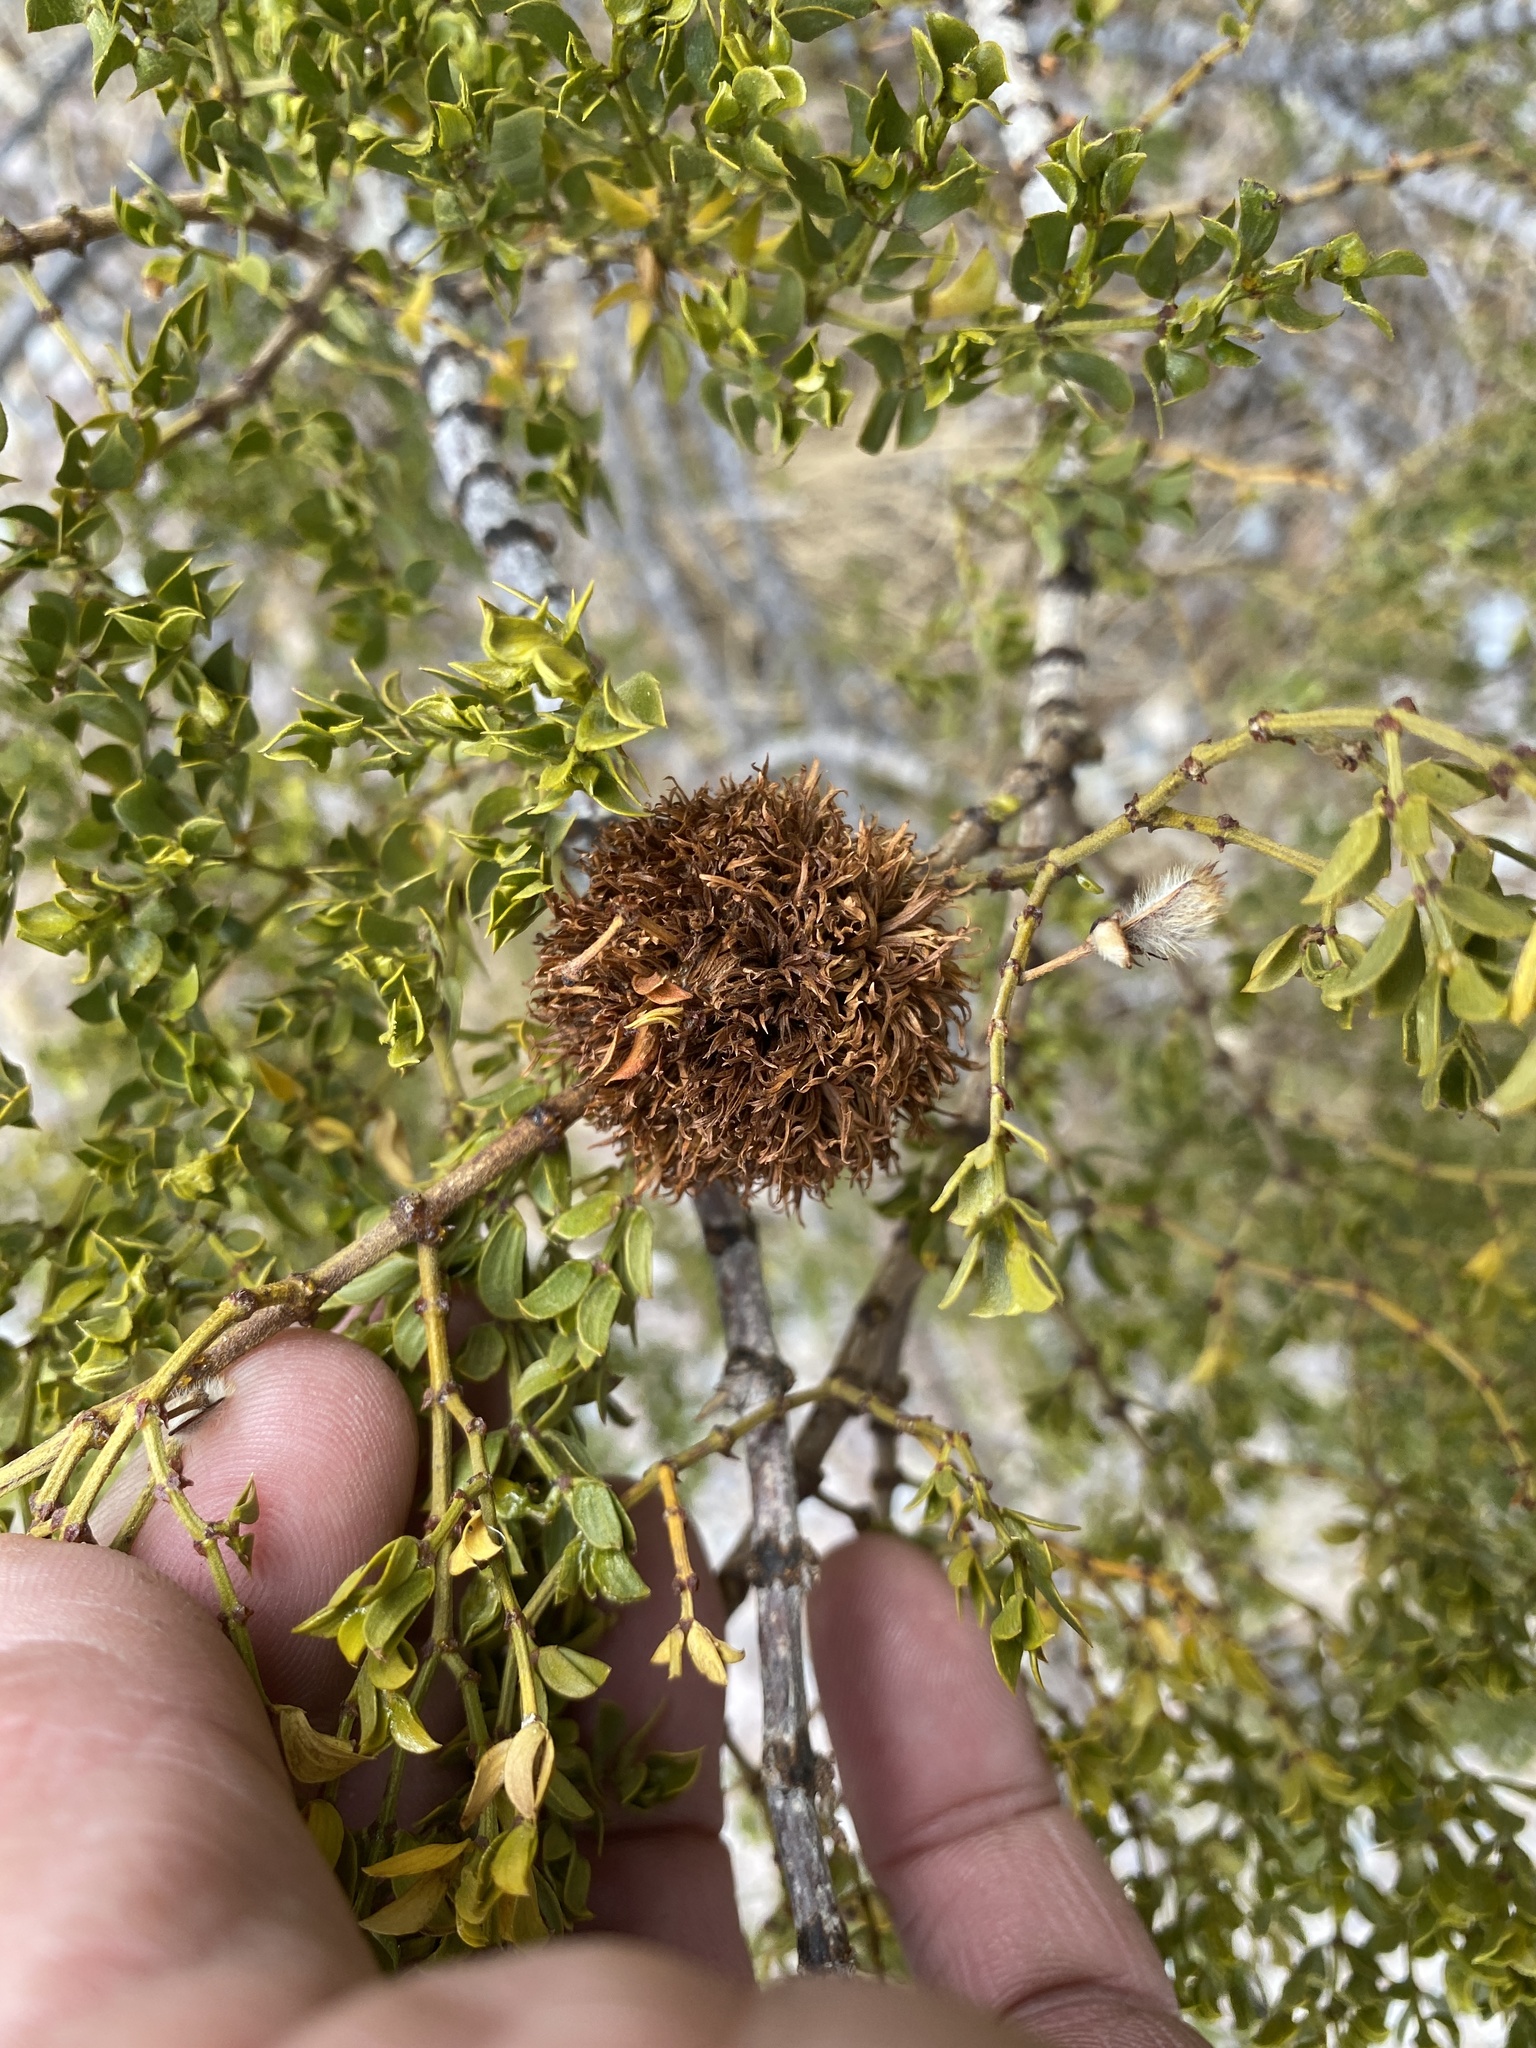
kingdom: Animalia
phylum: Arthropoda
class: Insecta
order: Diptera
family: Cecidomyiidae
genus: Asphondylia
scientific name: Asphondylia auripila
